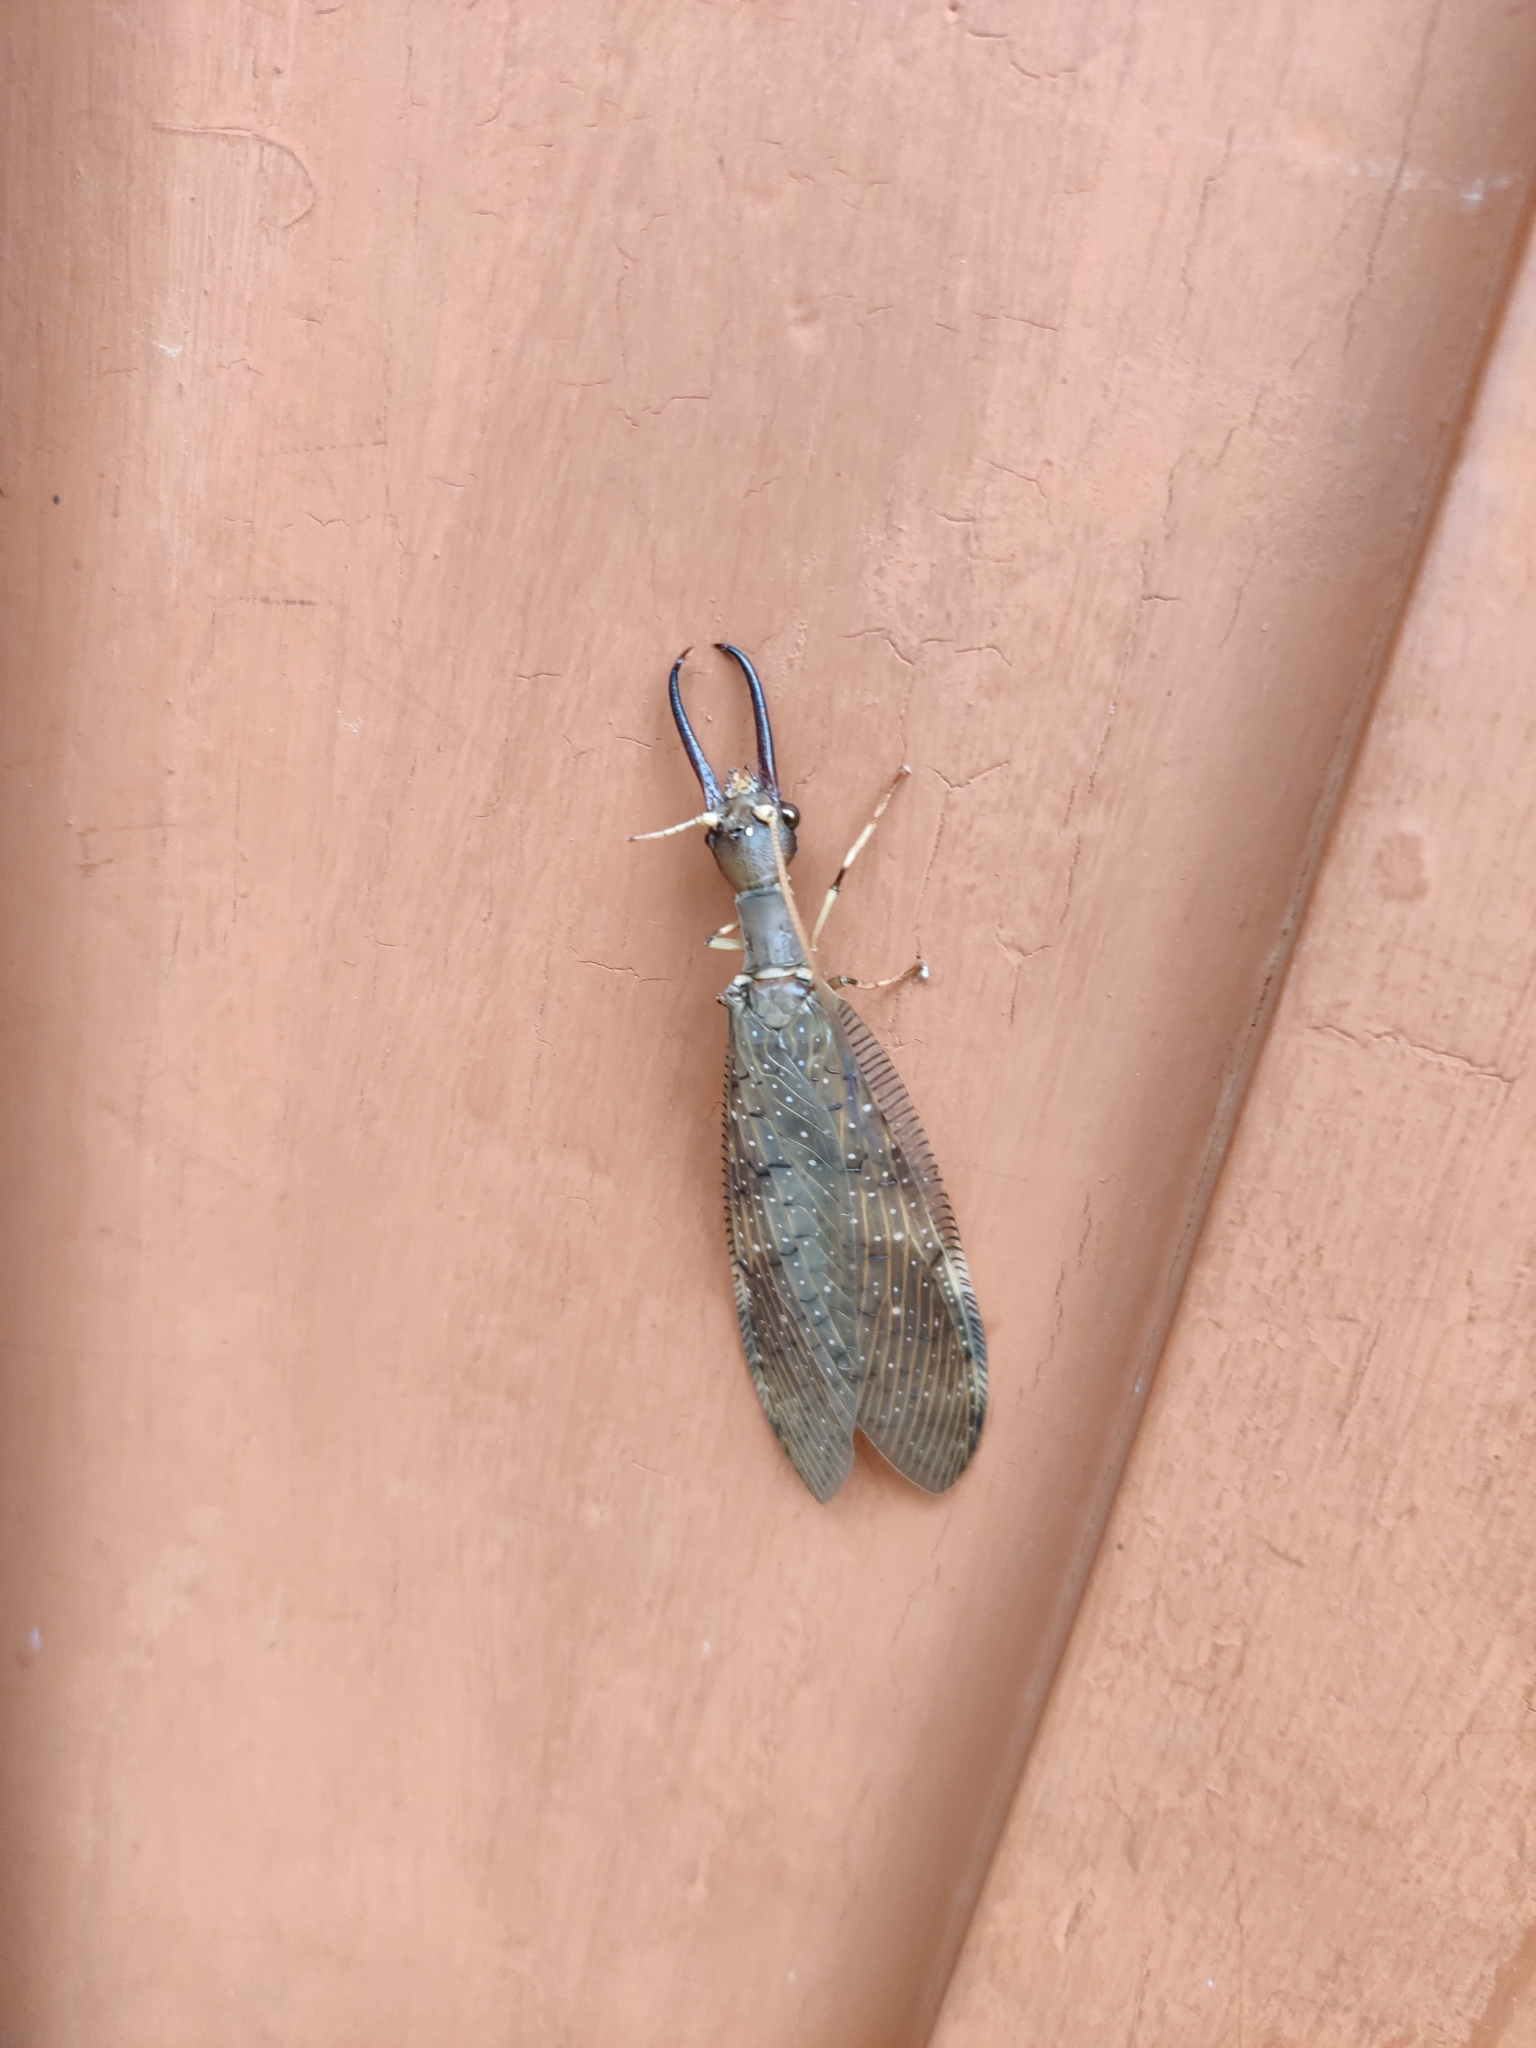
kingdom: Animalia
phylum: Arthropoda
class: Insecta
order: Megaloptera
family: Corydalidae
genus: Corydalus
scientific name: Corydalus peruvianus
